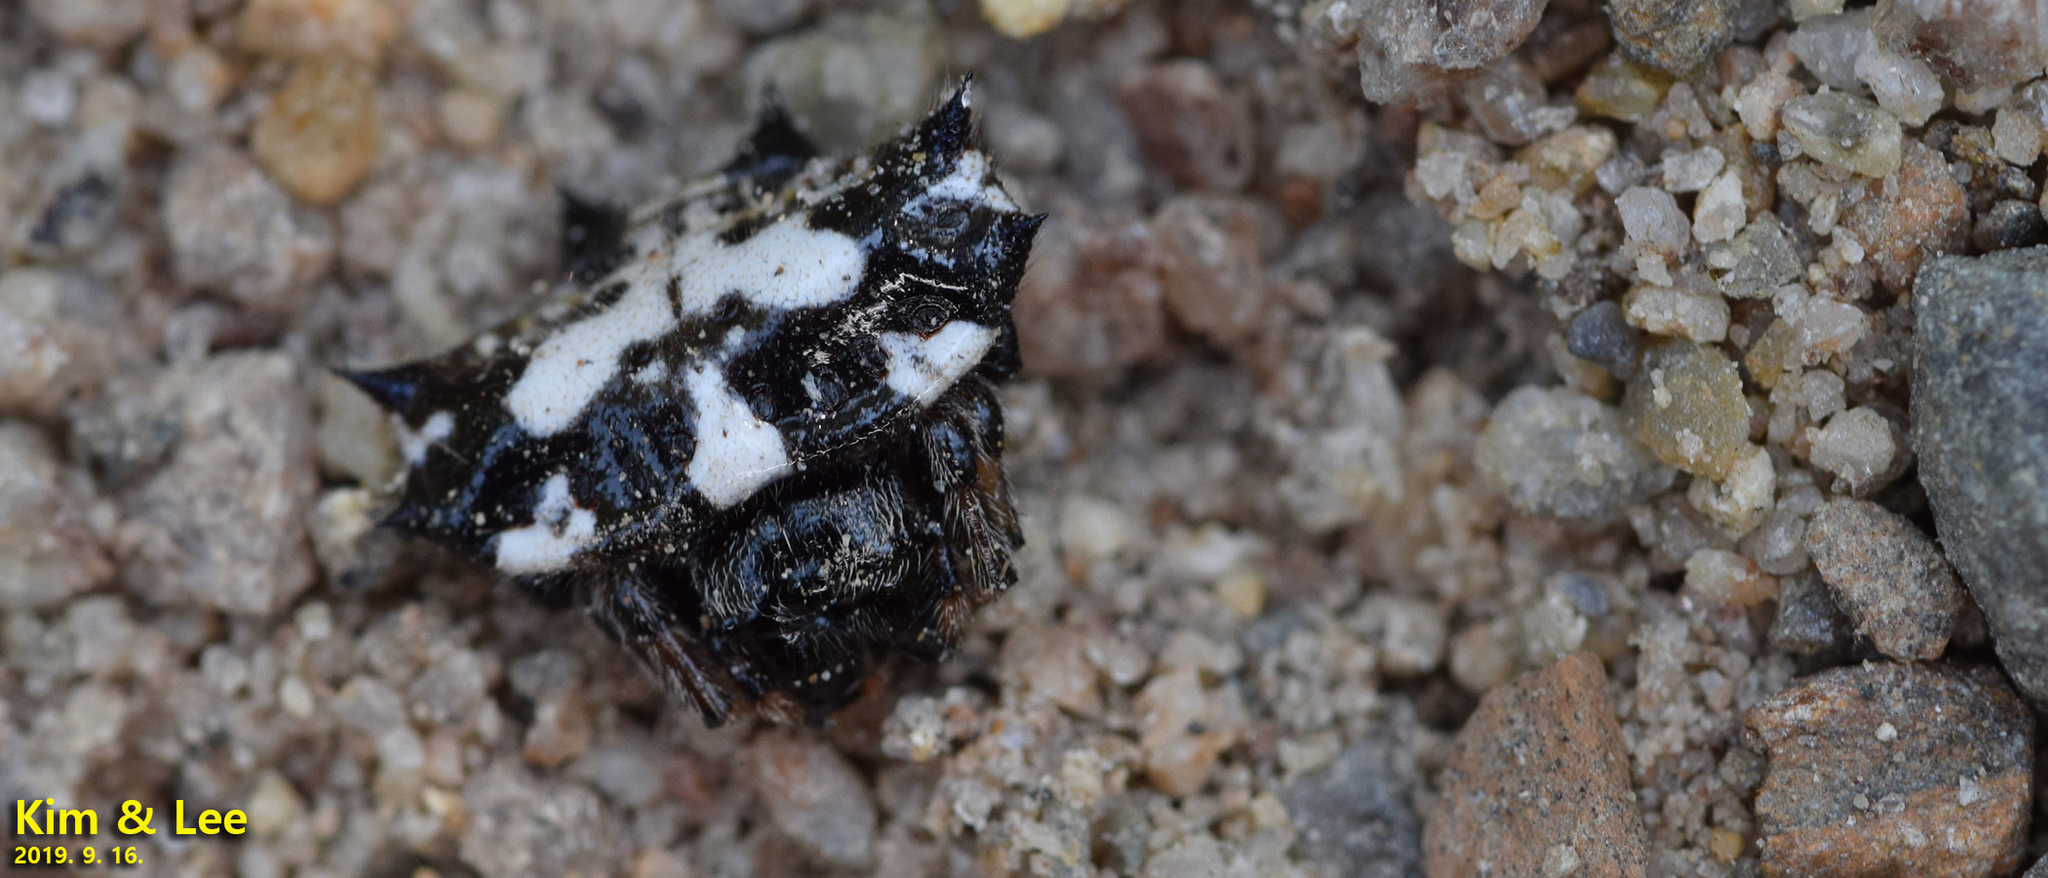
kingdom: Animalia
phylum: Arthropoda
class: Arachnida
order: Araneae
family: Araneidae
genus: Gasteracantha
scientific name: Gasteracantha kuhli
